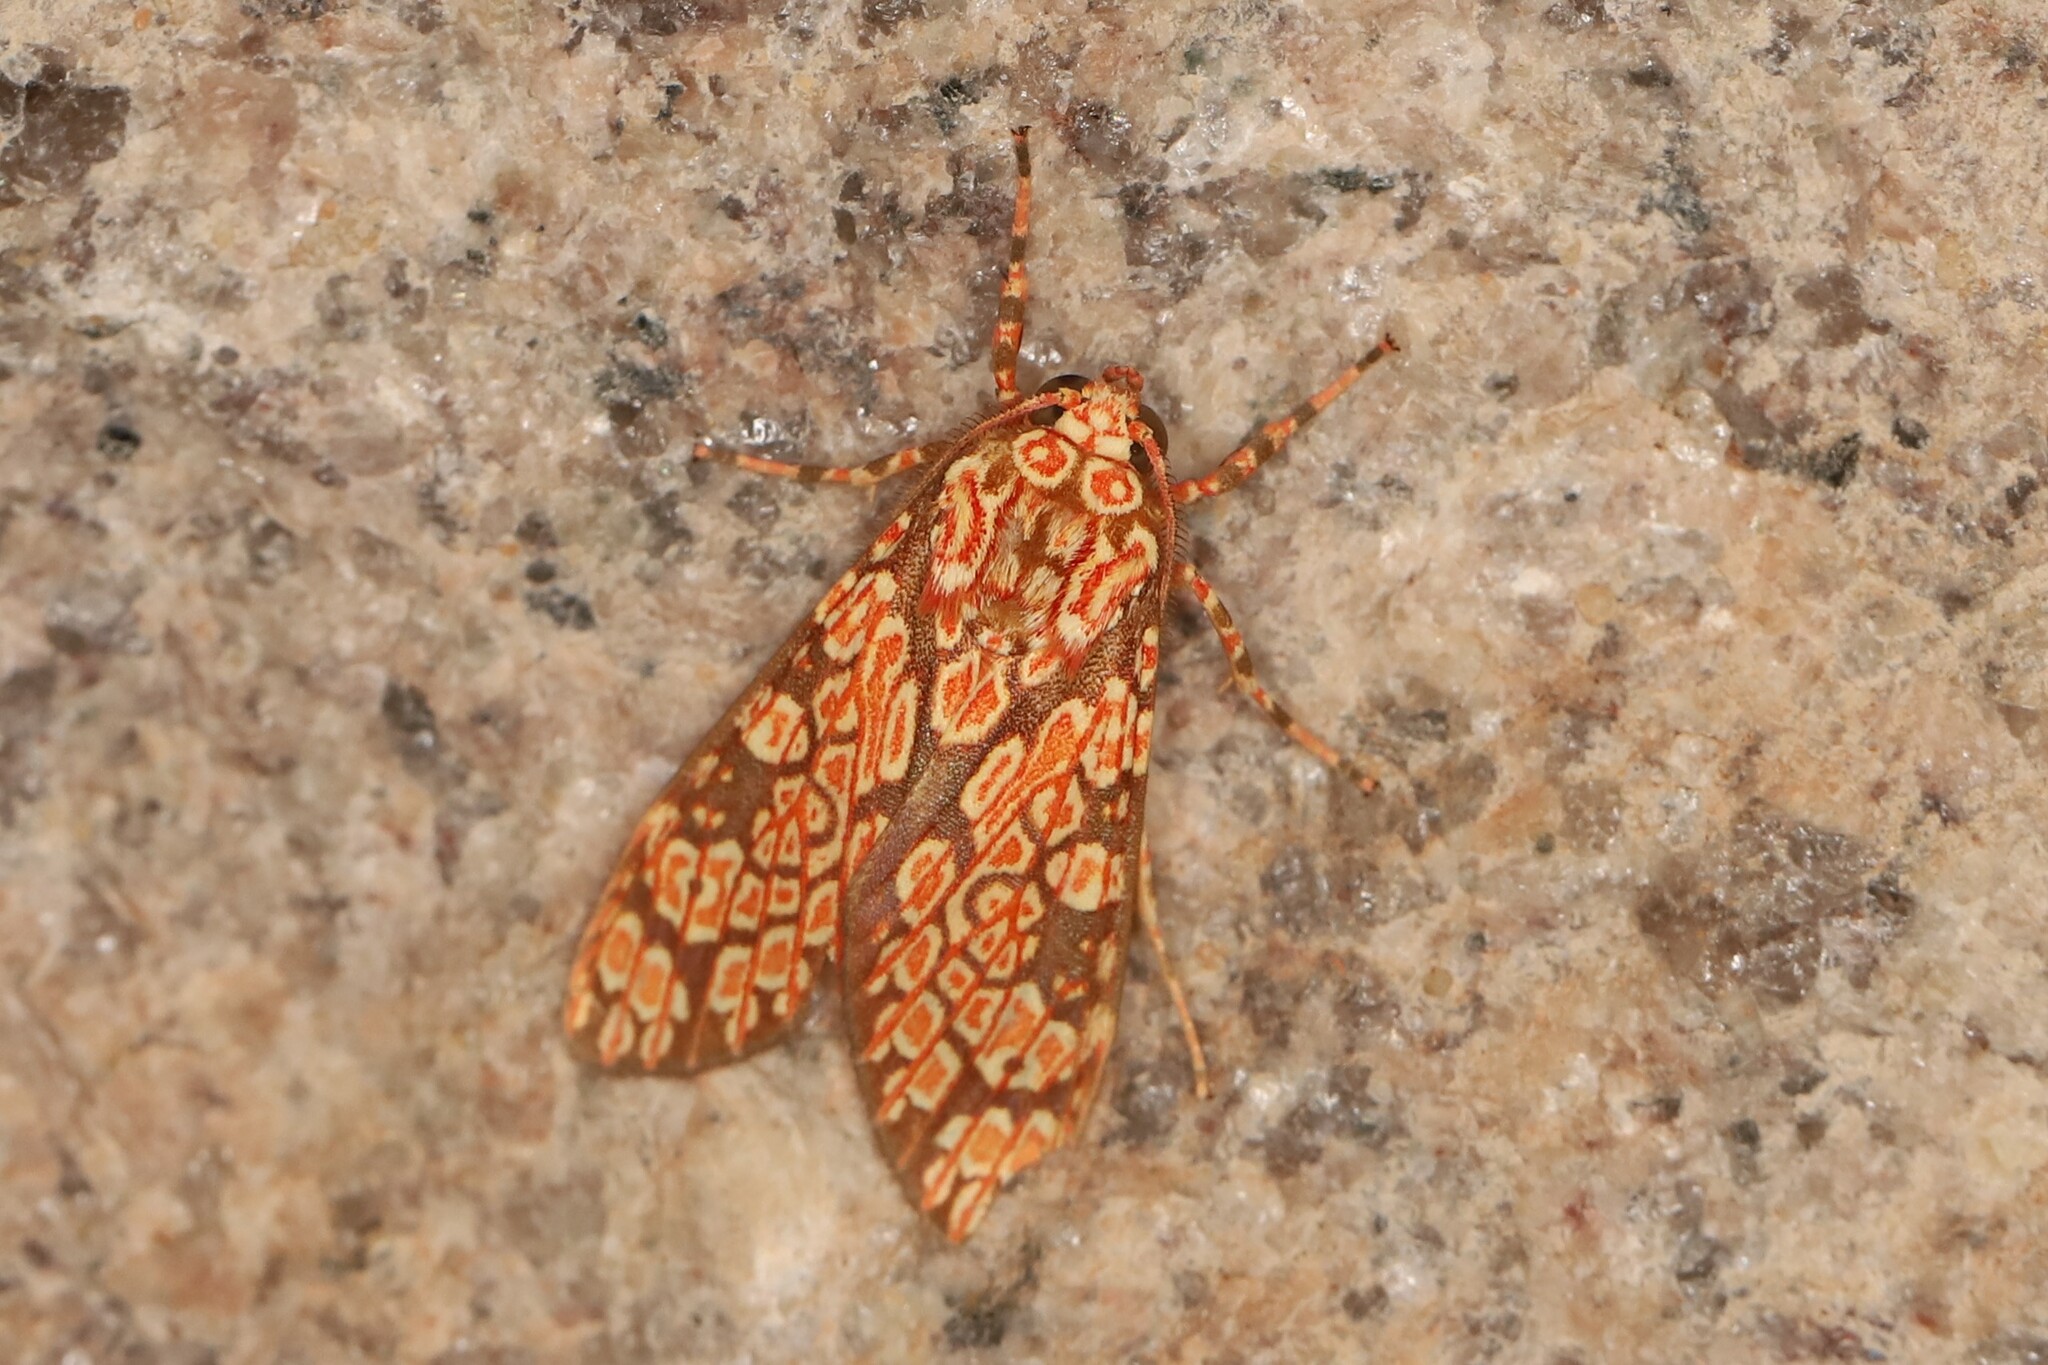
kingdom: Animalia
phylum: Arthropoda
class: Insecta
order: Lepidoptera
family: Erebidae
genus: Cresera
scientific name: Cresera optimus
